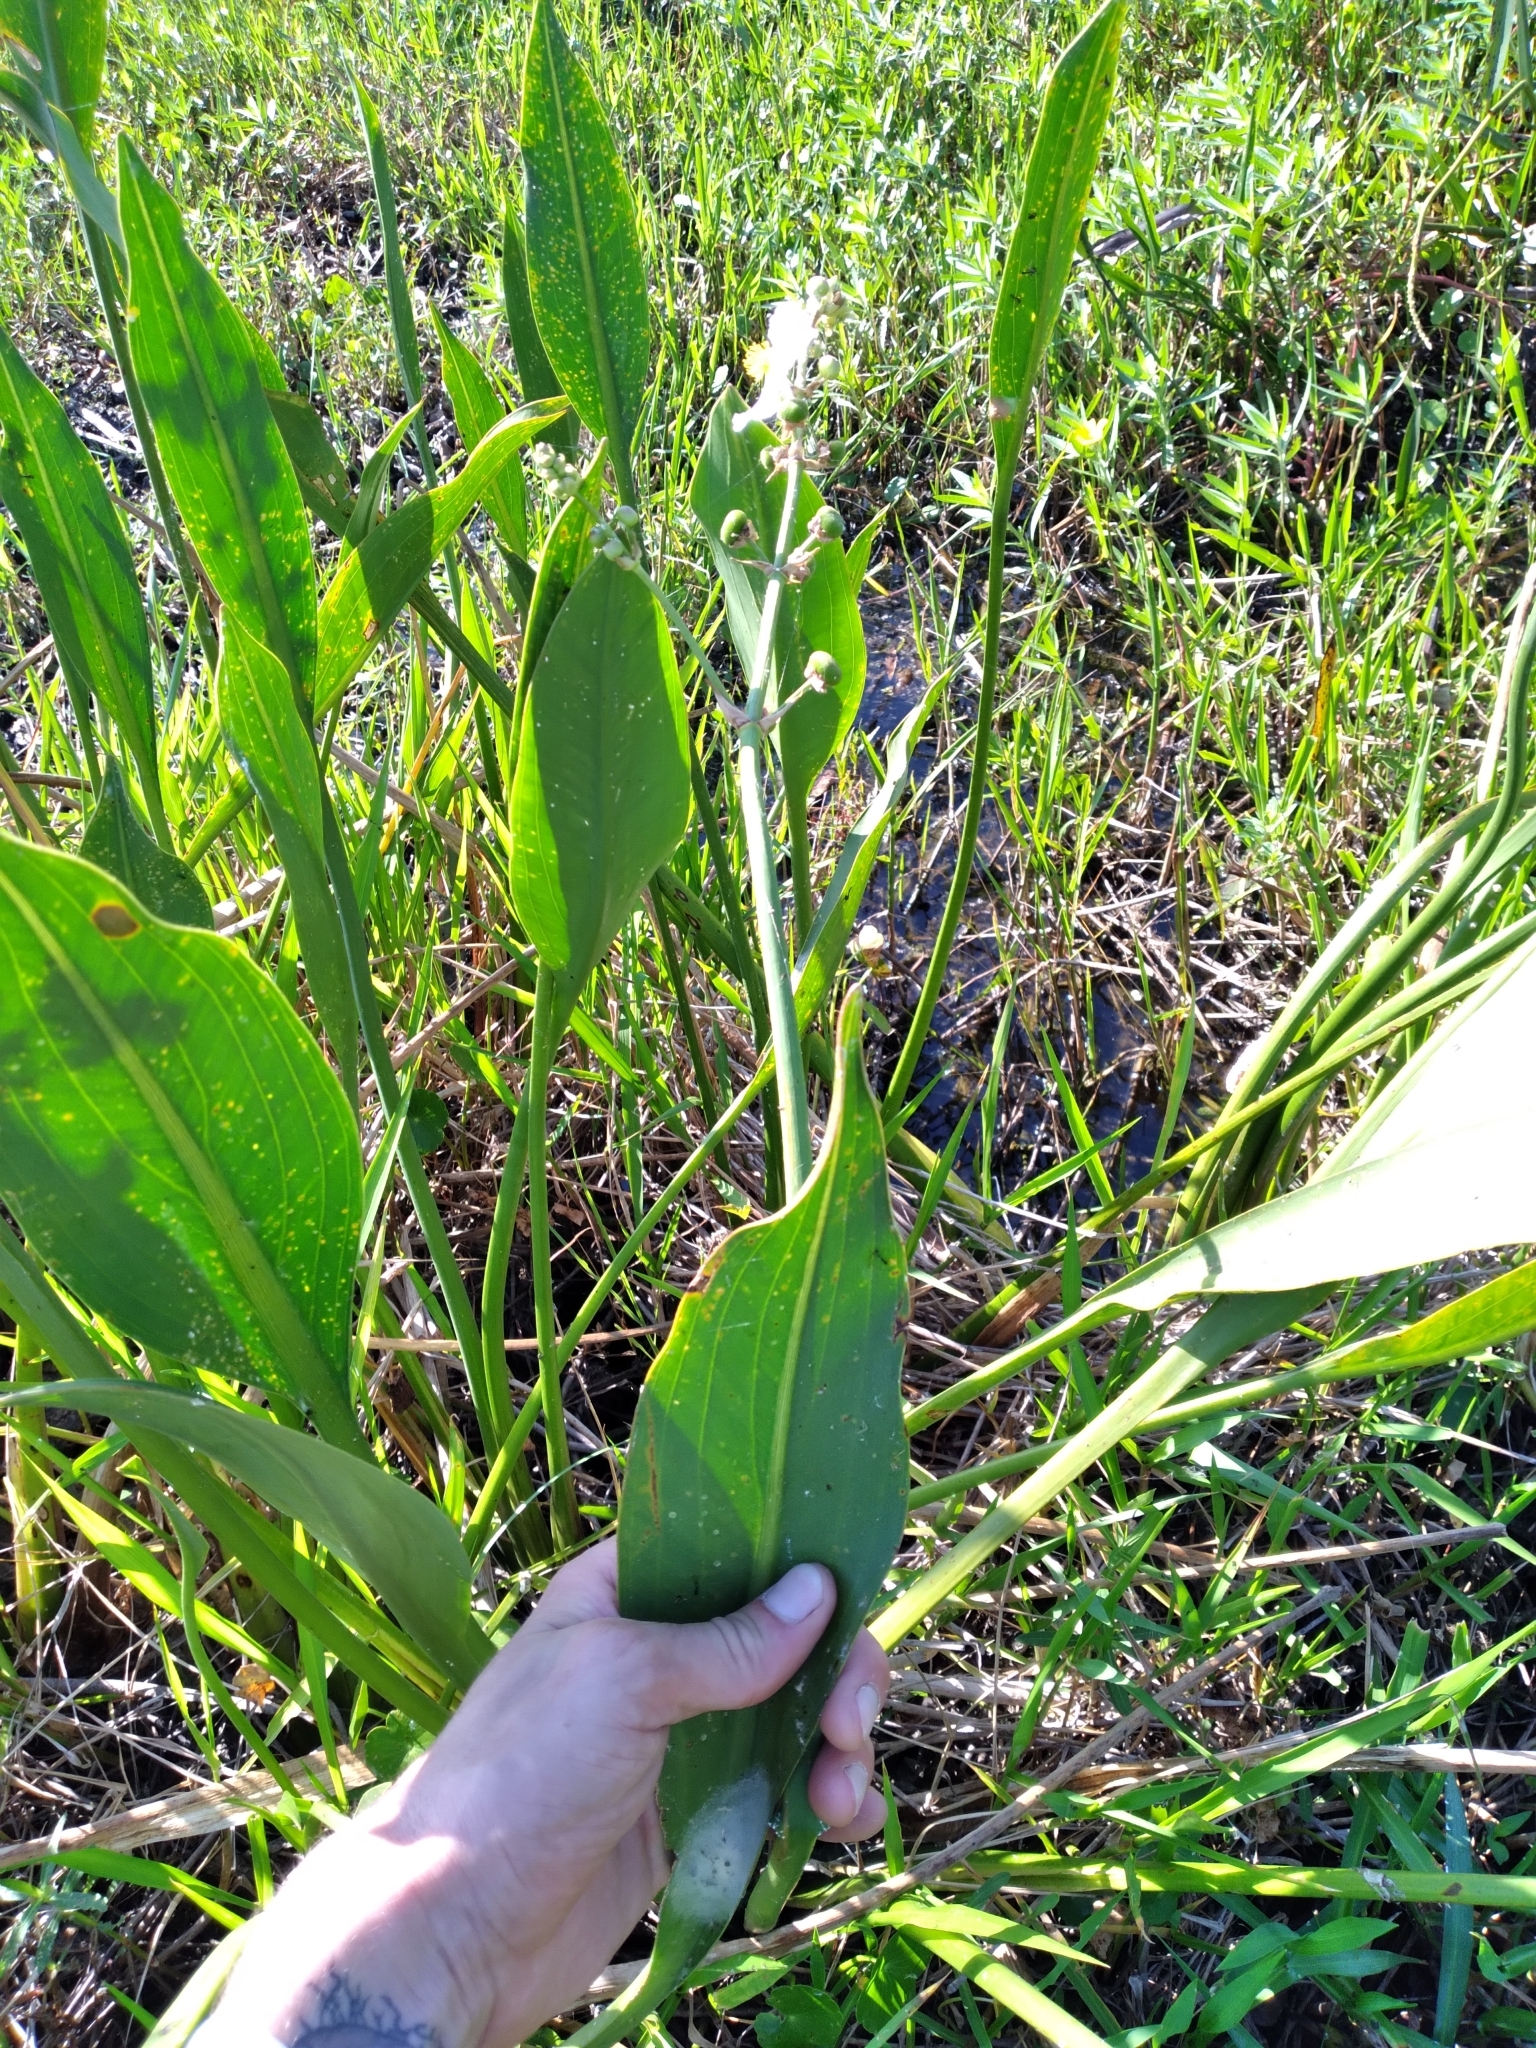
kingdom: Plantae
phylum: Tracheophyta
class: Liliopsida
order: Alismatales
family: Alismataceae
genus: Sagittaria
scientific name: Sagittaria lancifolia
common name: Lance-leaf arrowhead
